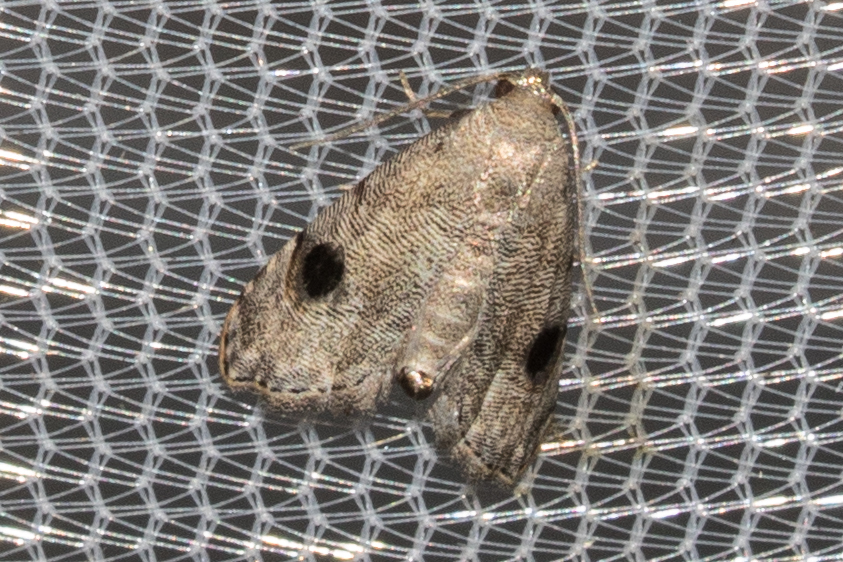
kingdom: Animalia
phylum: Arthropoda
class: Insecta
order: Lepidoptera
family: Noctuidae
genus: Abablemma
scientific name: Abablemma brimleyana
